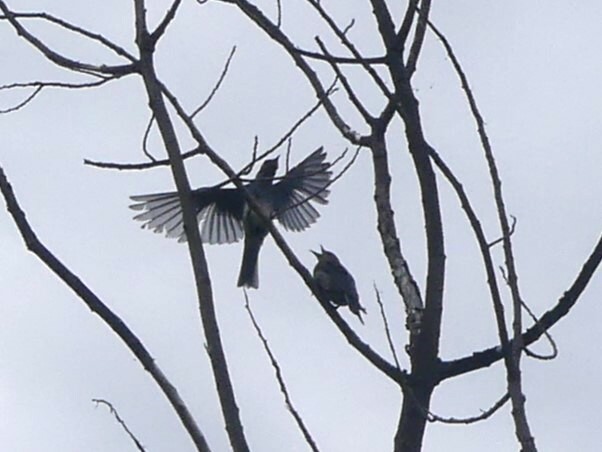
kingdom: Animalia
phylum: Chordata
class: Aves
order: Passeriformes
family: Turdidae
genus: Sialia
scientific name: Sialia currucoides
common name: Mountain bluebird
